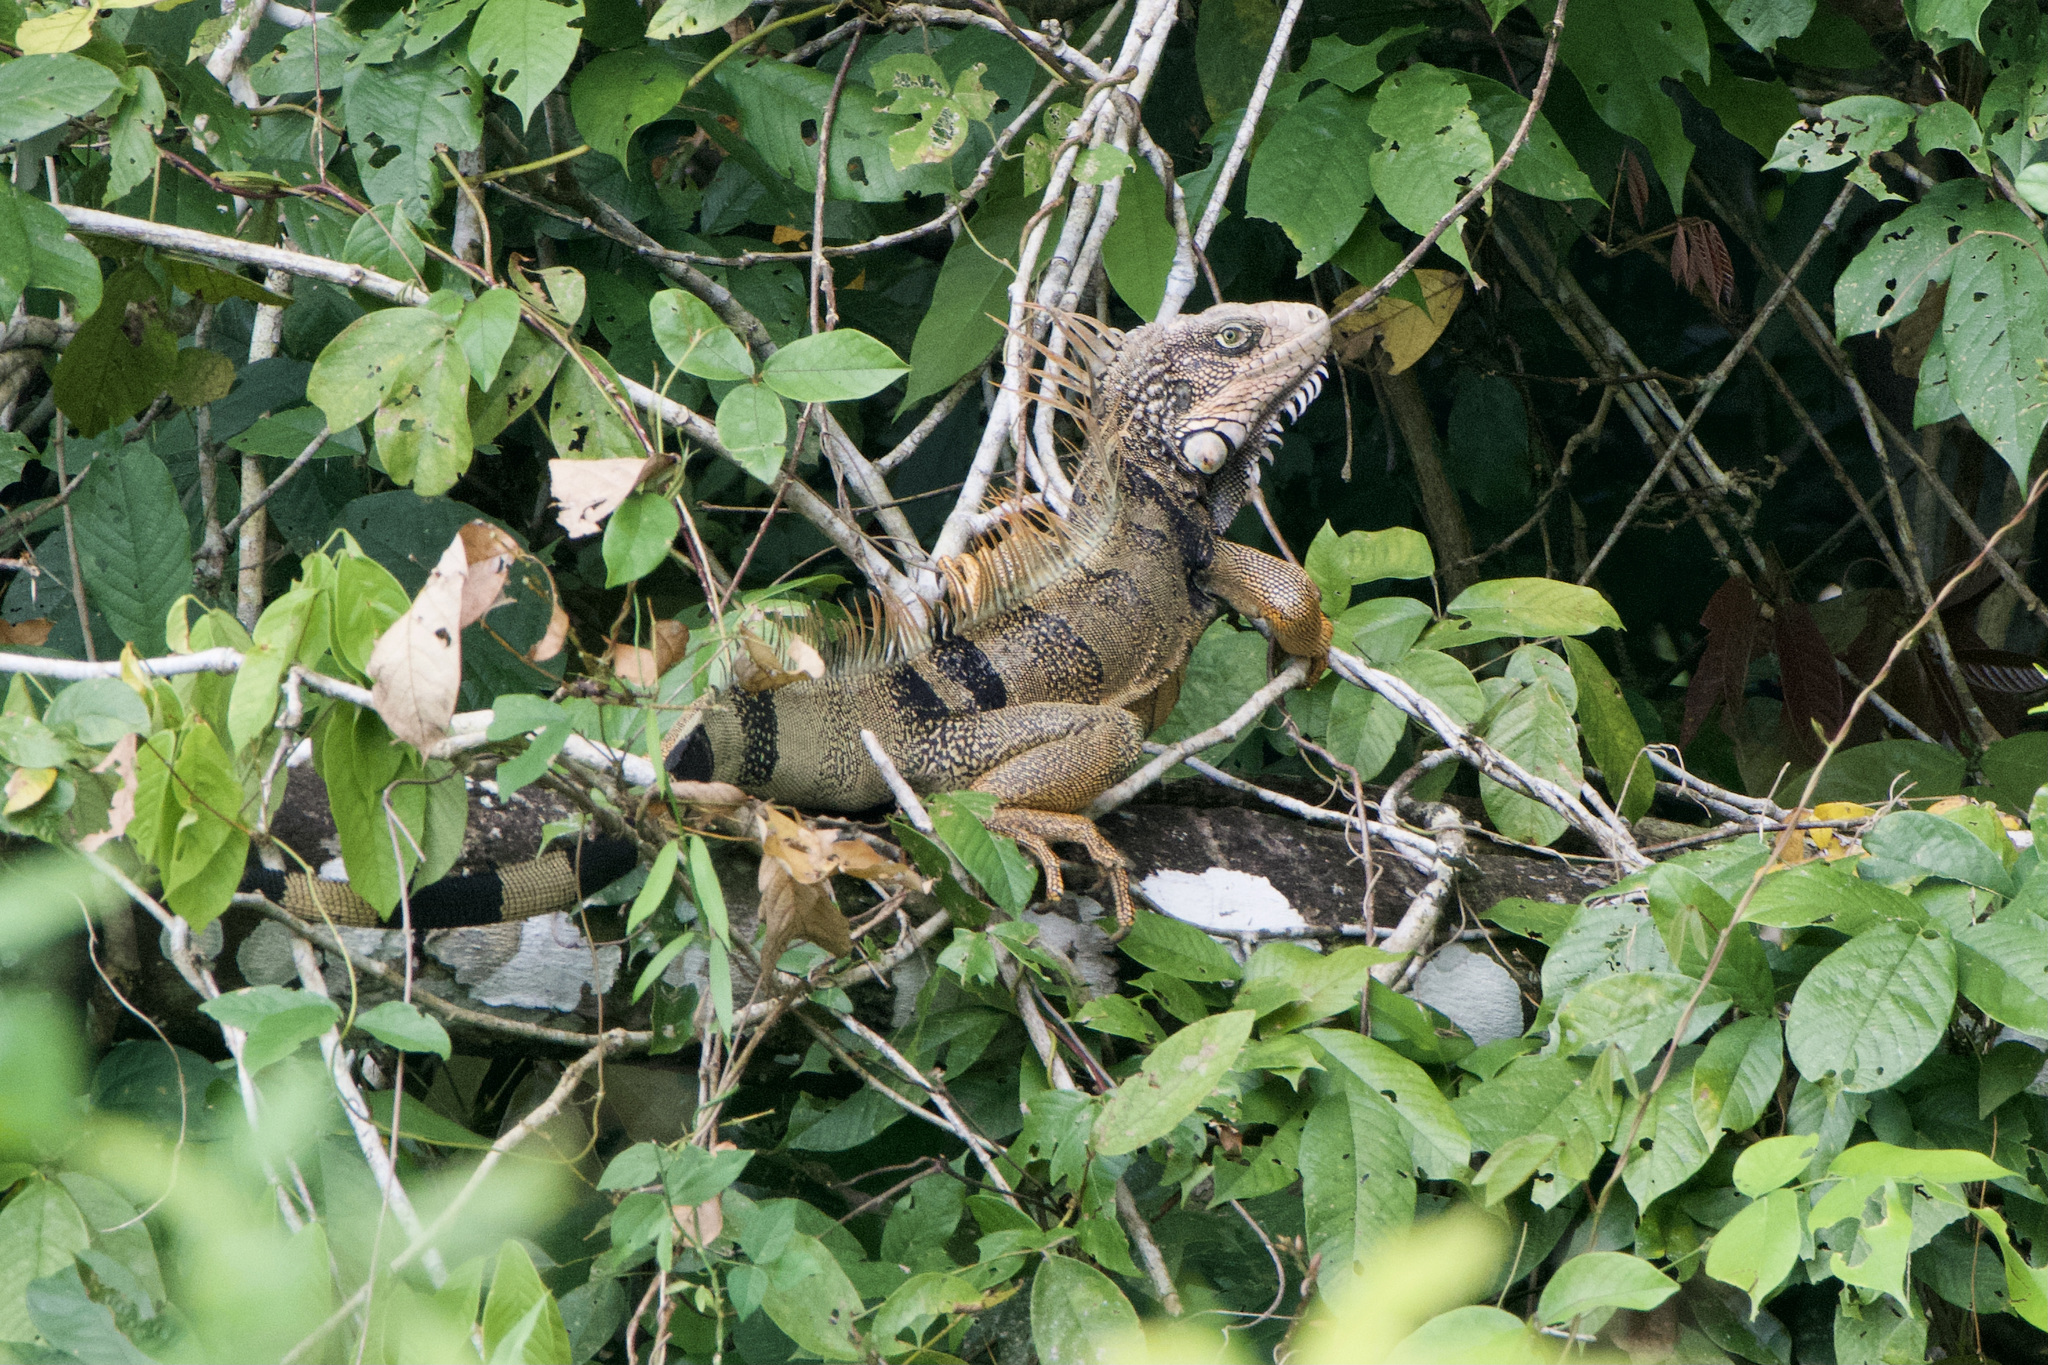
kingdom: Animalia
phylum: Chordata
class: Squamata
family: Iguanidae
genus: Iguana
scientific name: Iguana iguana
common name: Green iguana
